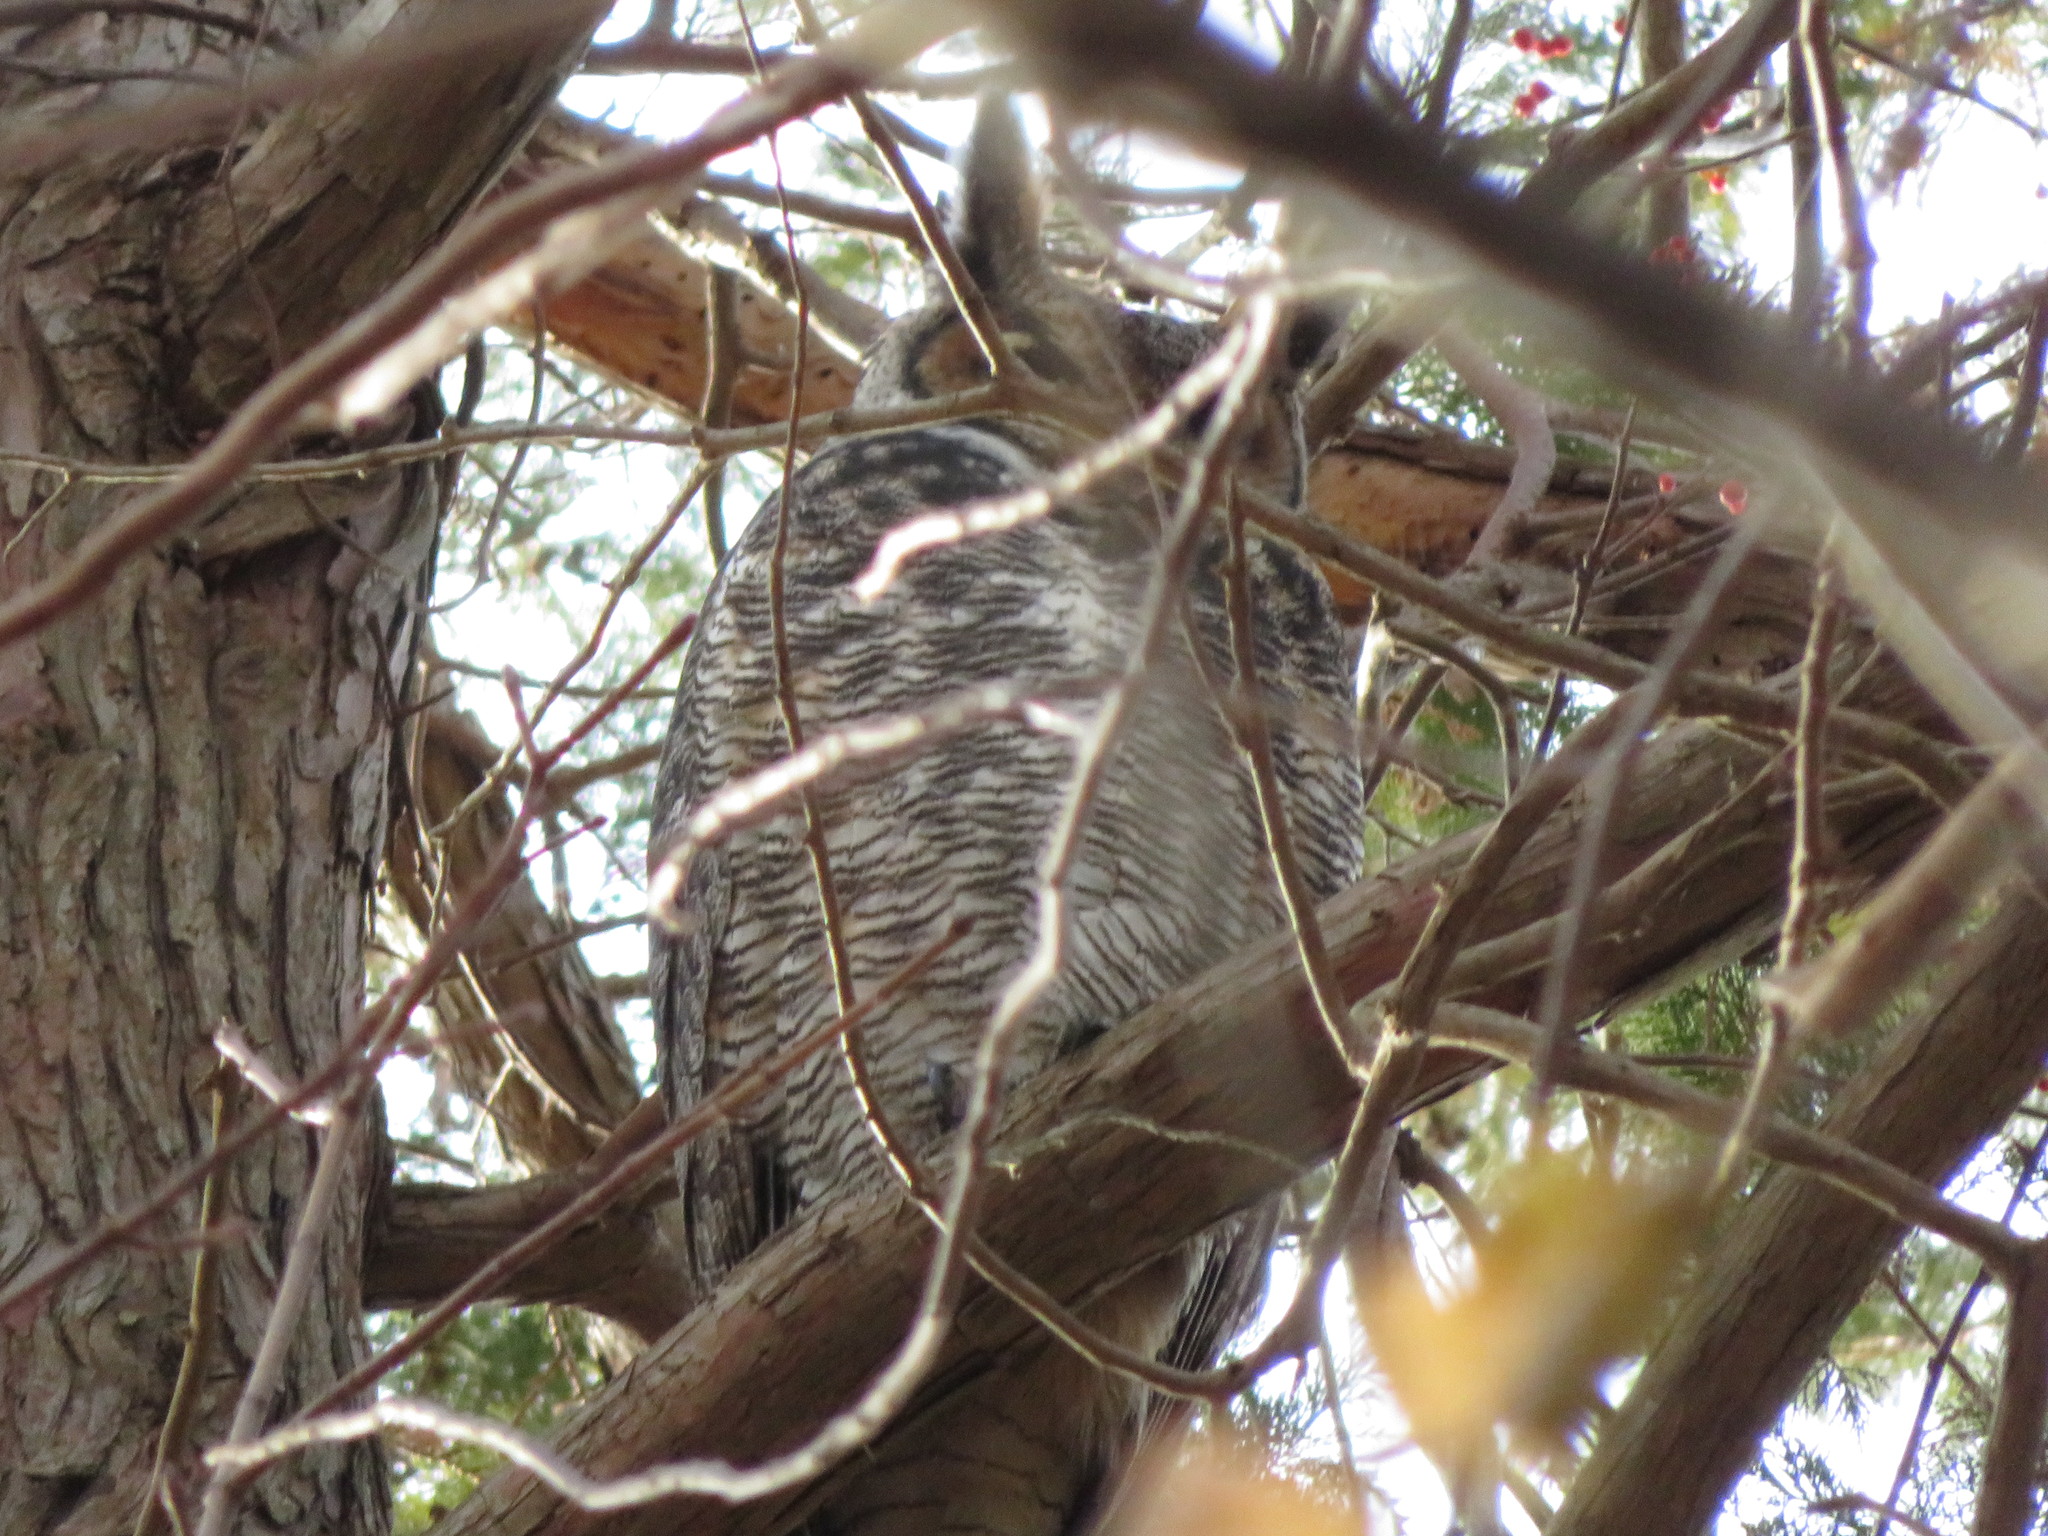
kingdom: Animalia
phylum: Chordata
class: Aves
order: Strigiformes
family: Strigidae
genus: Bubo
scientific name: Bubo virginianus
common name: Great horned owl
